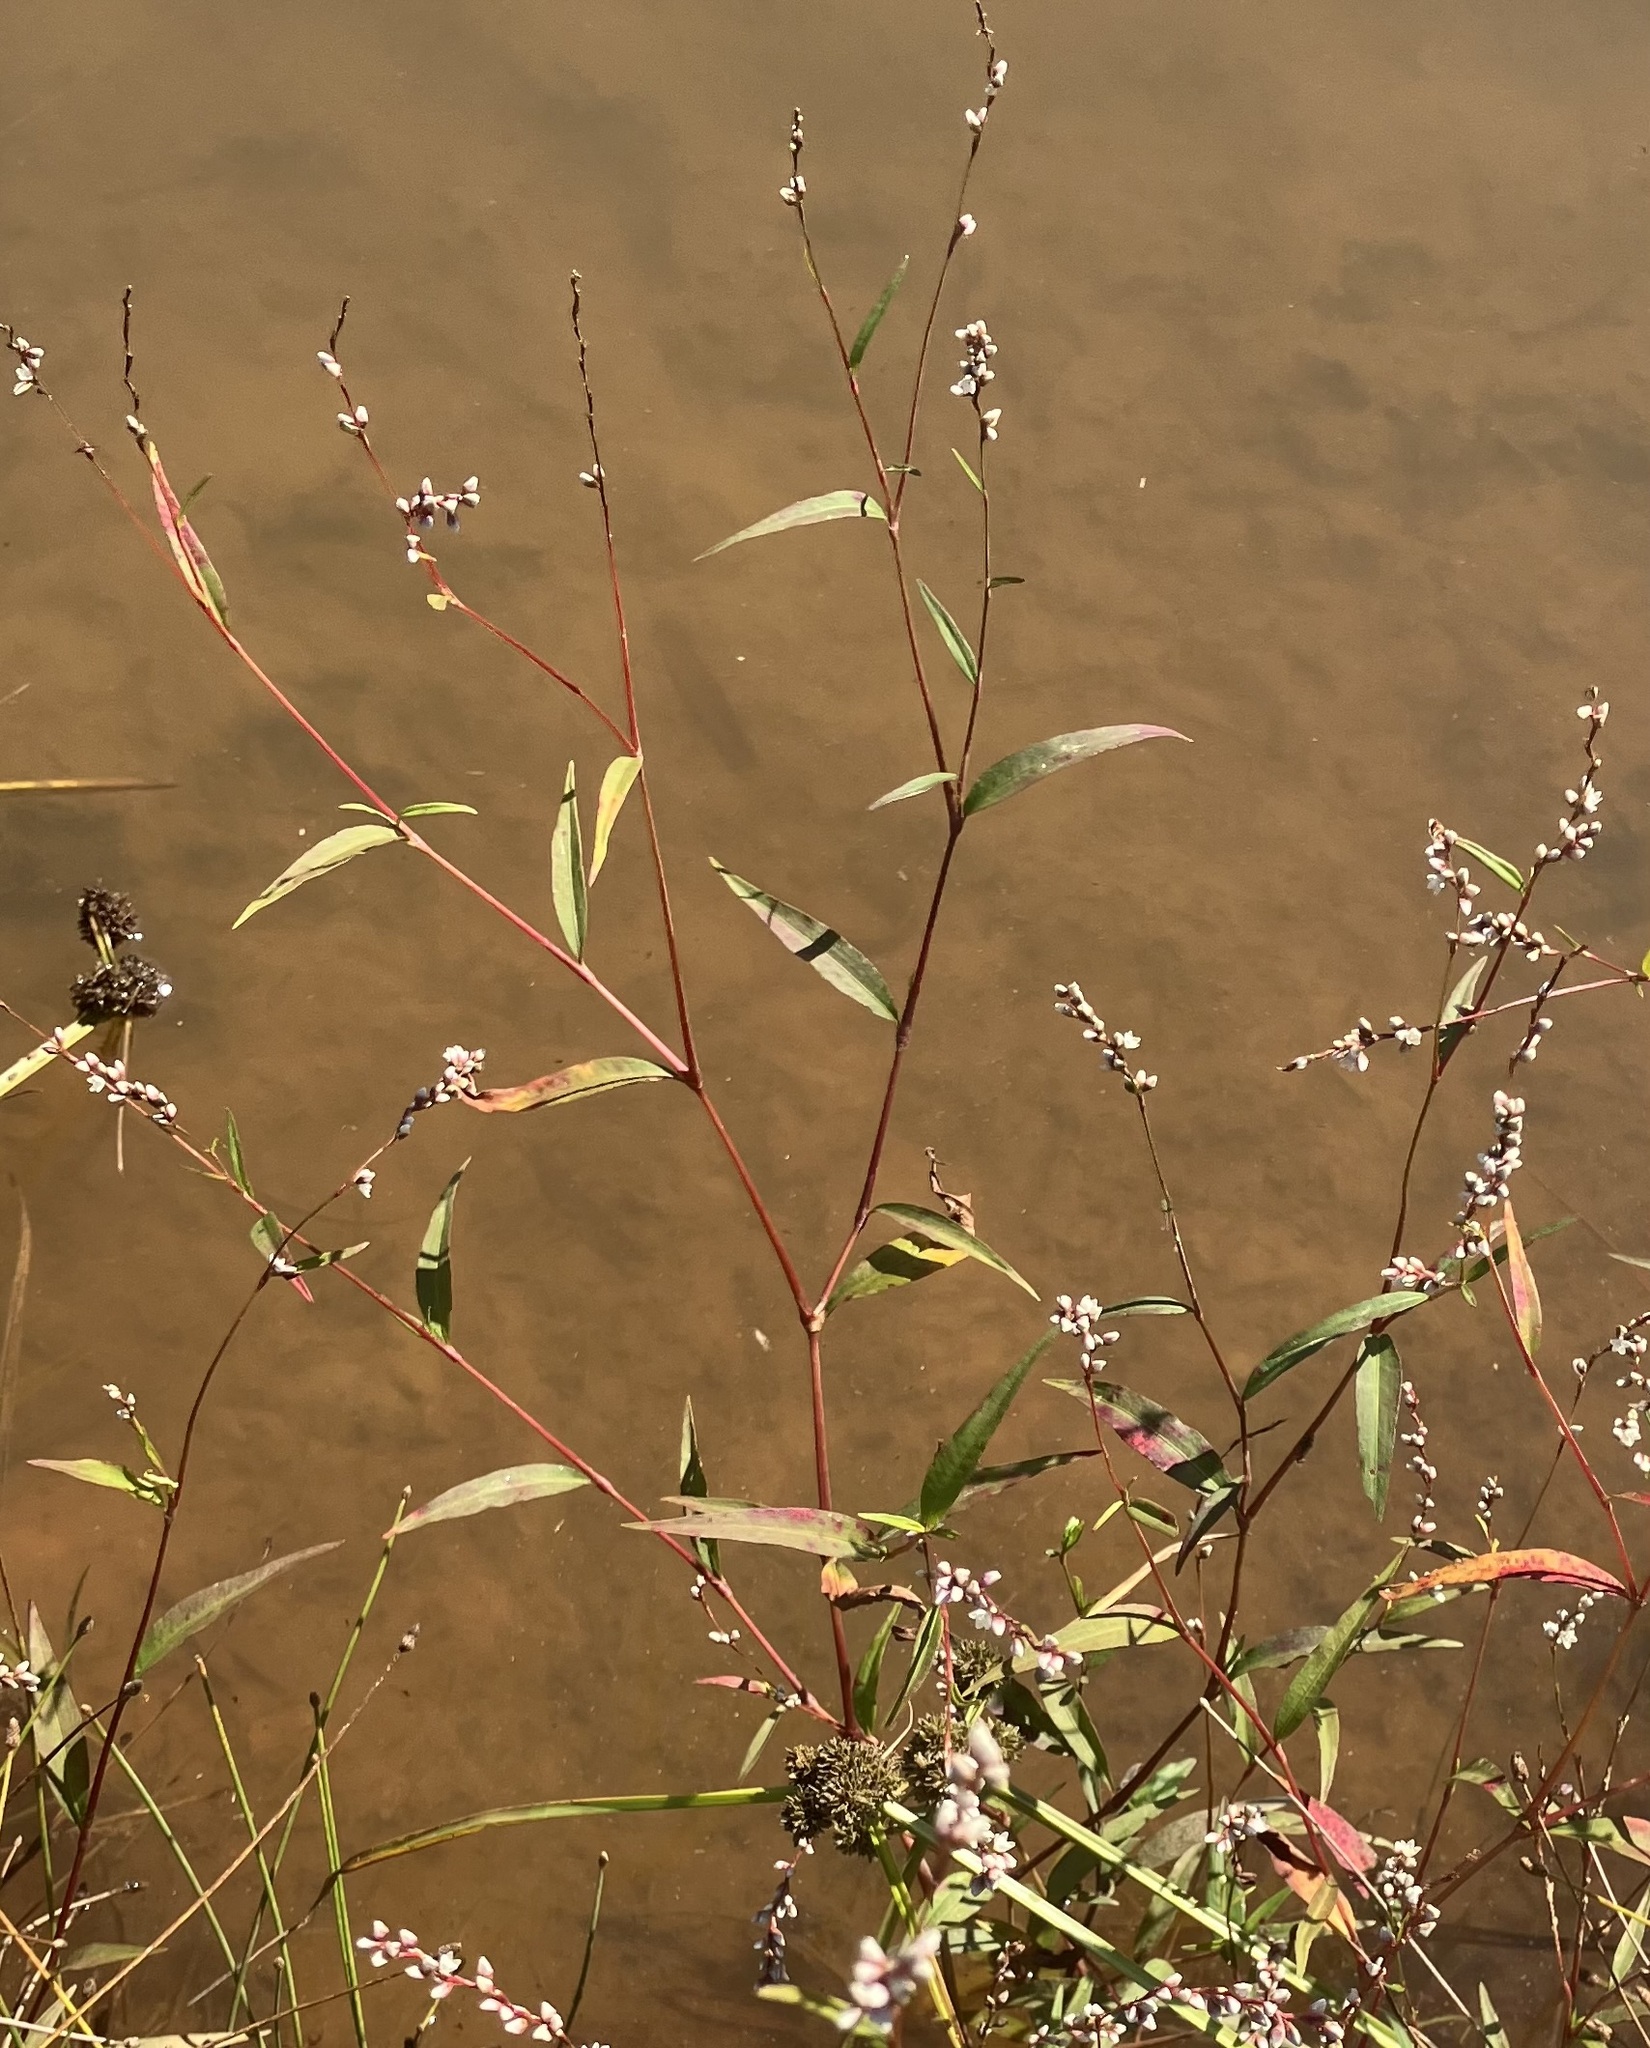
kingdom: Plantae
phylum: Tracheophyta
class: Magnoliopsida
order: Caryophyllales
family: Polygonaceae
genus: Persicaria
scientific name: Persicaria hydropiperoides
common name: Swamp smartweed
